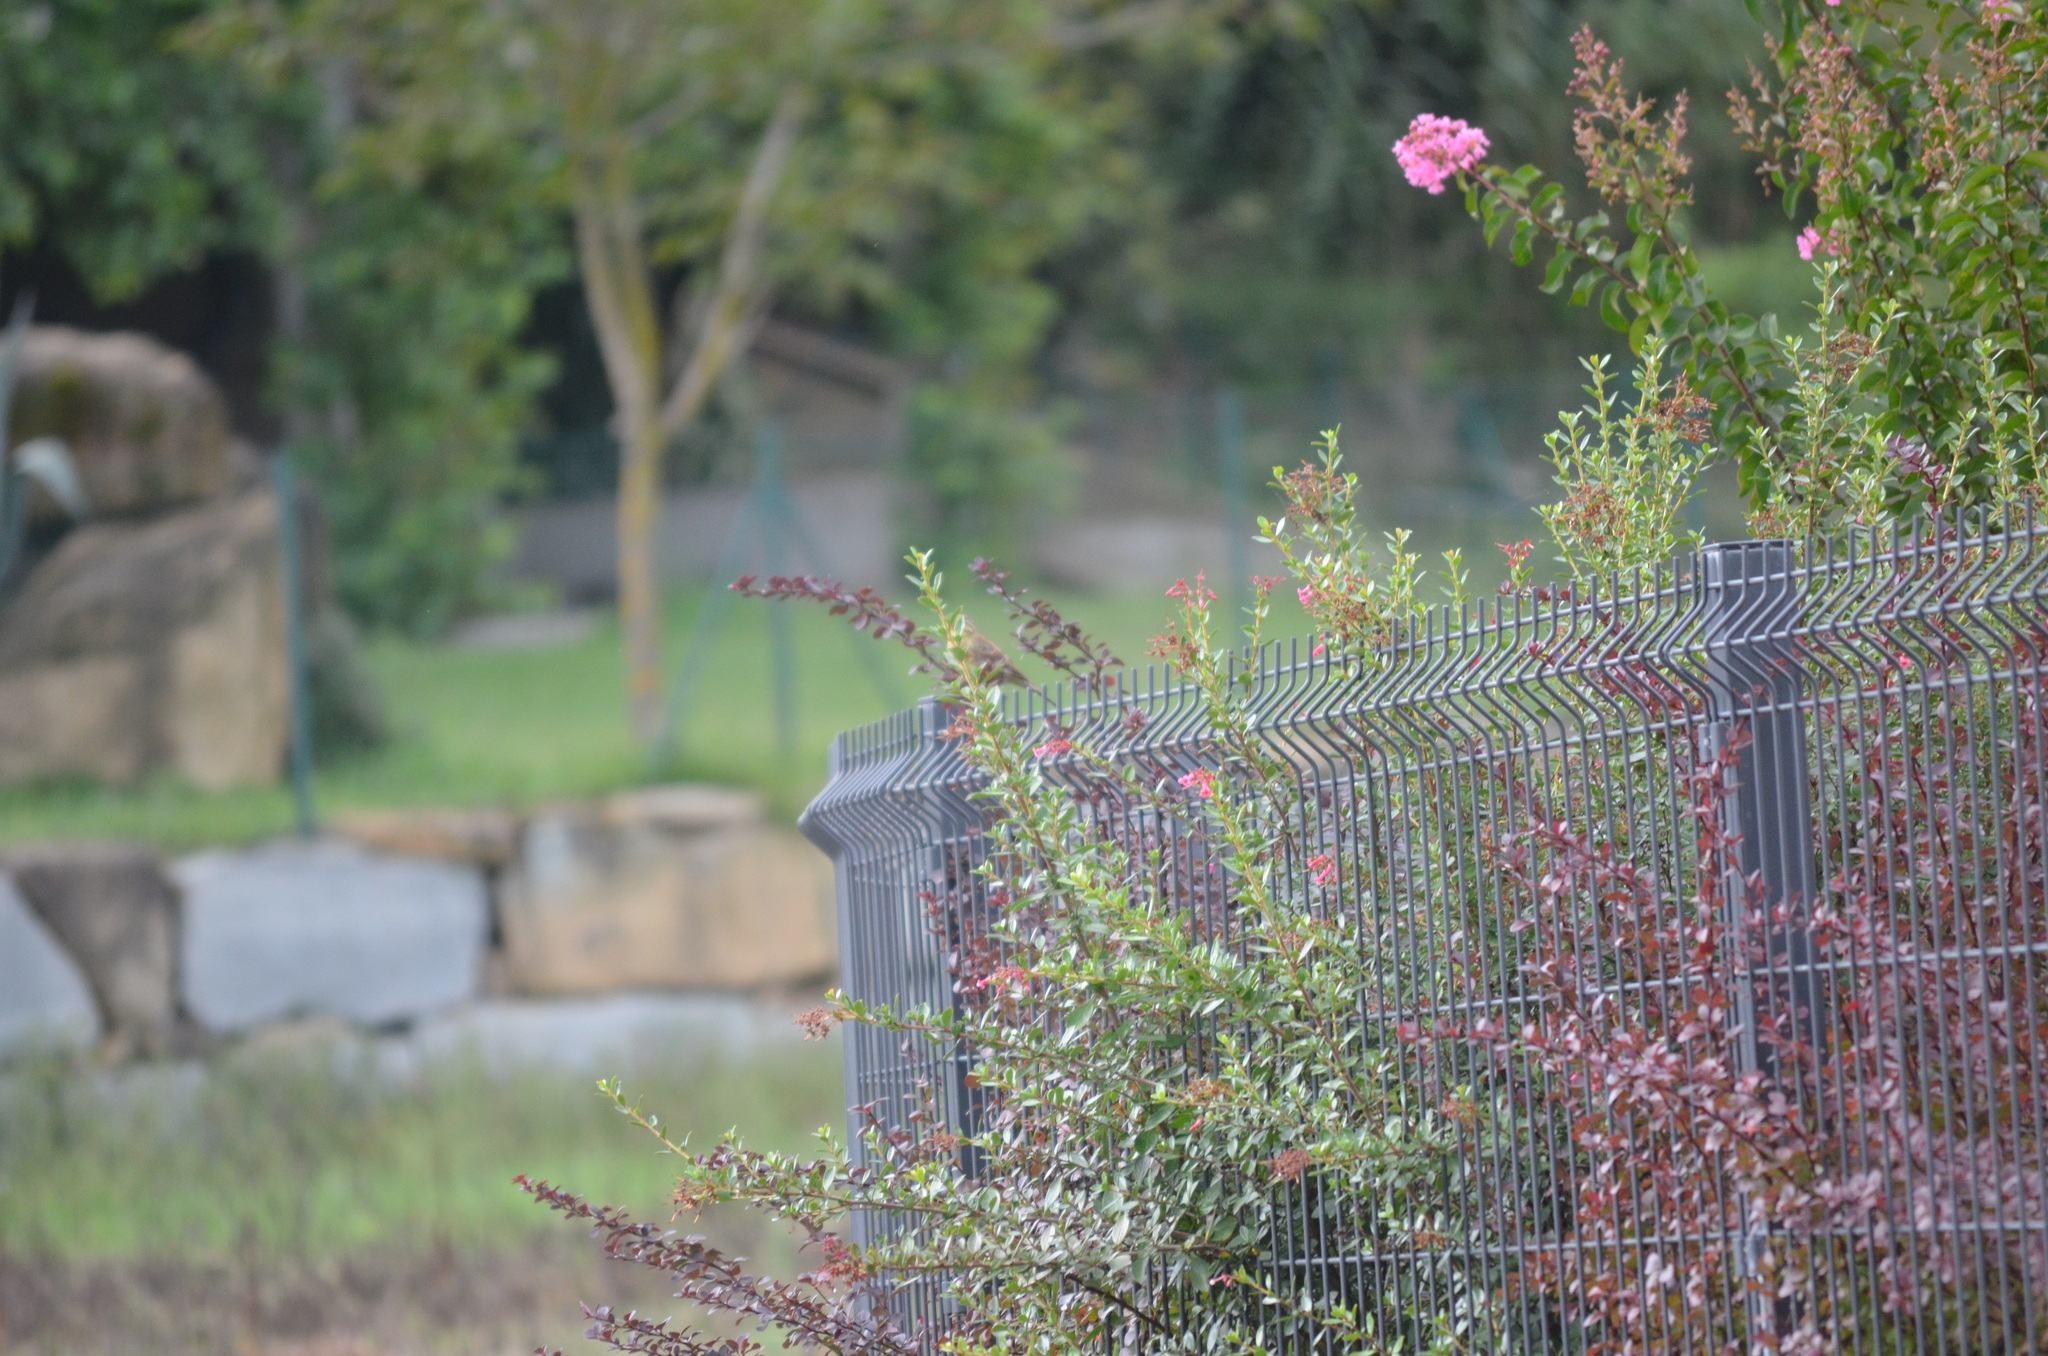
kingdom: Animalia
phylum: Chordata
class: Aves
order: Passeriformes
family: Emberizidae
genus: Emberiza
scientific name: Emberiza cirlus
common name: Cirl bunting
